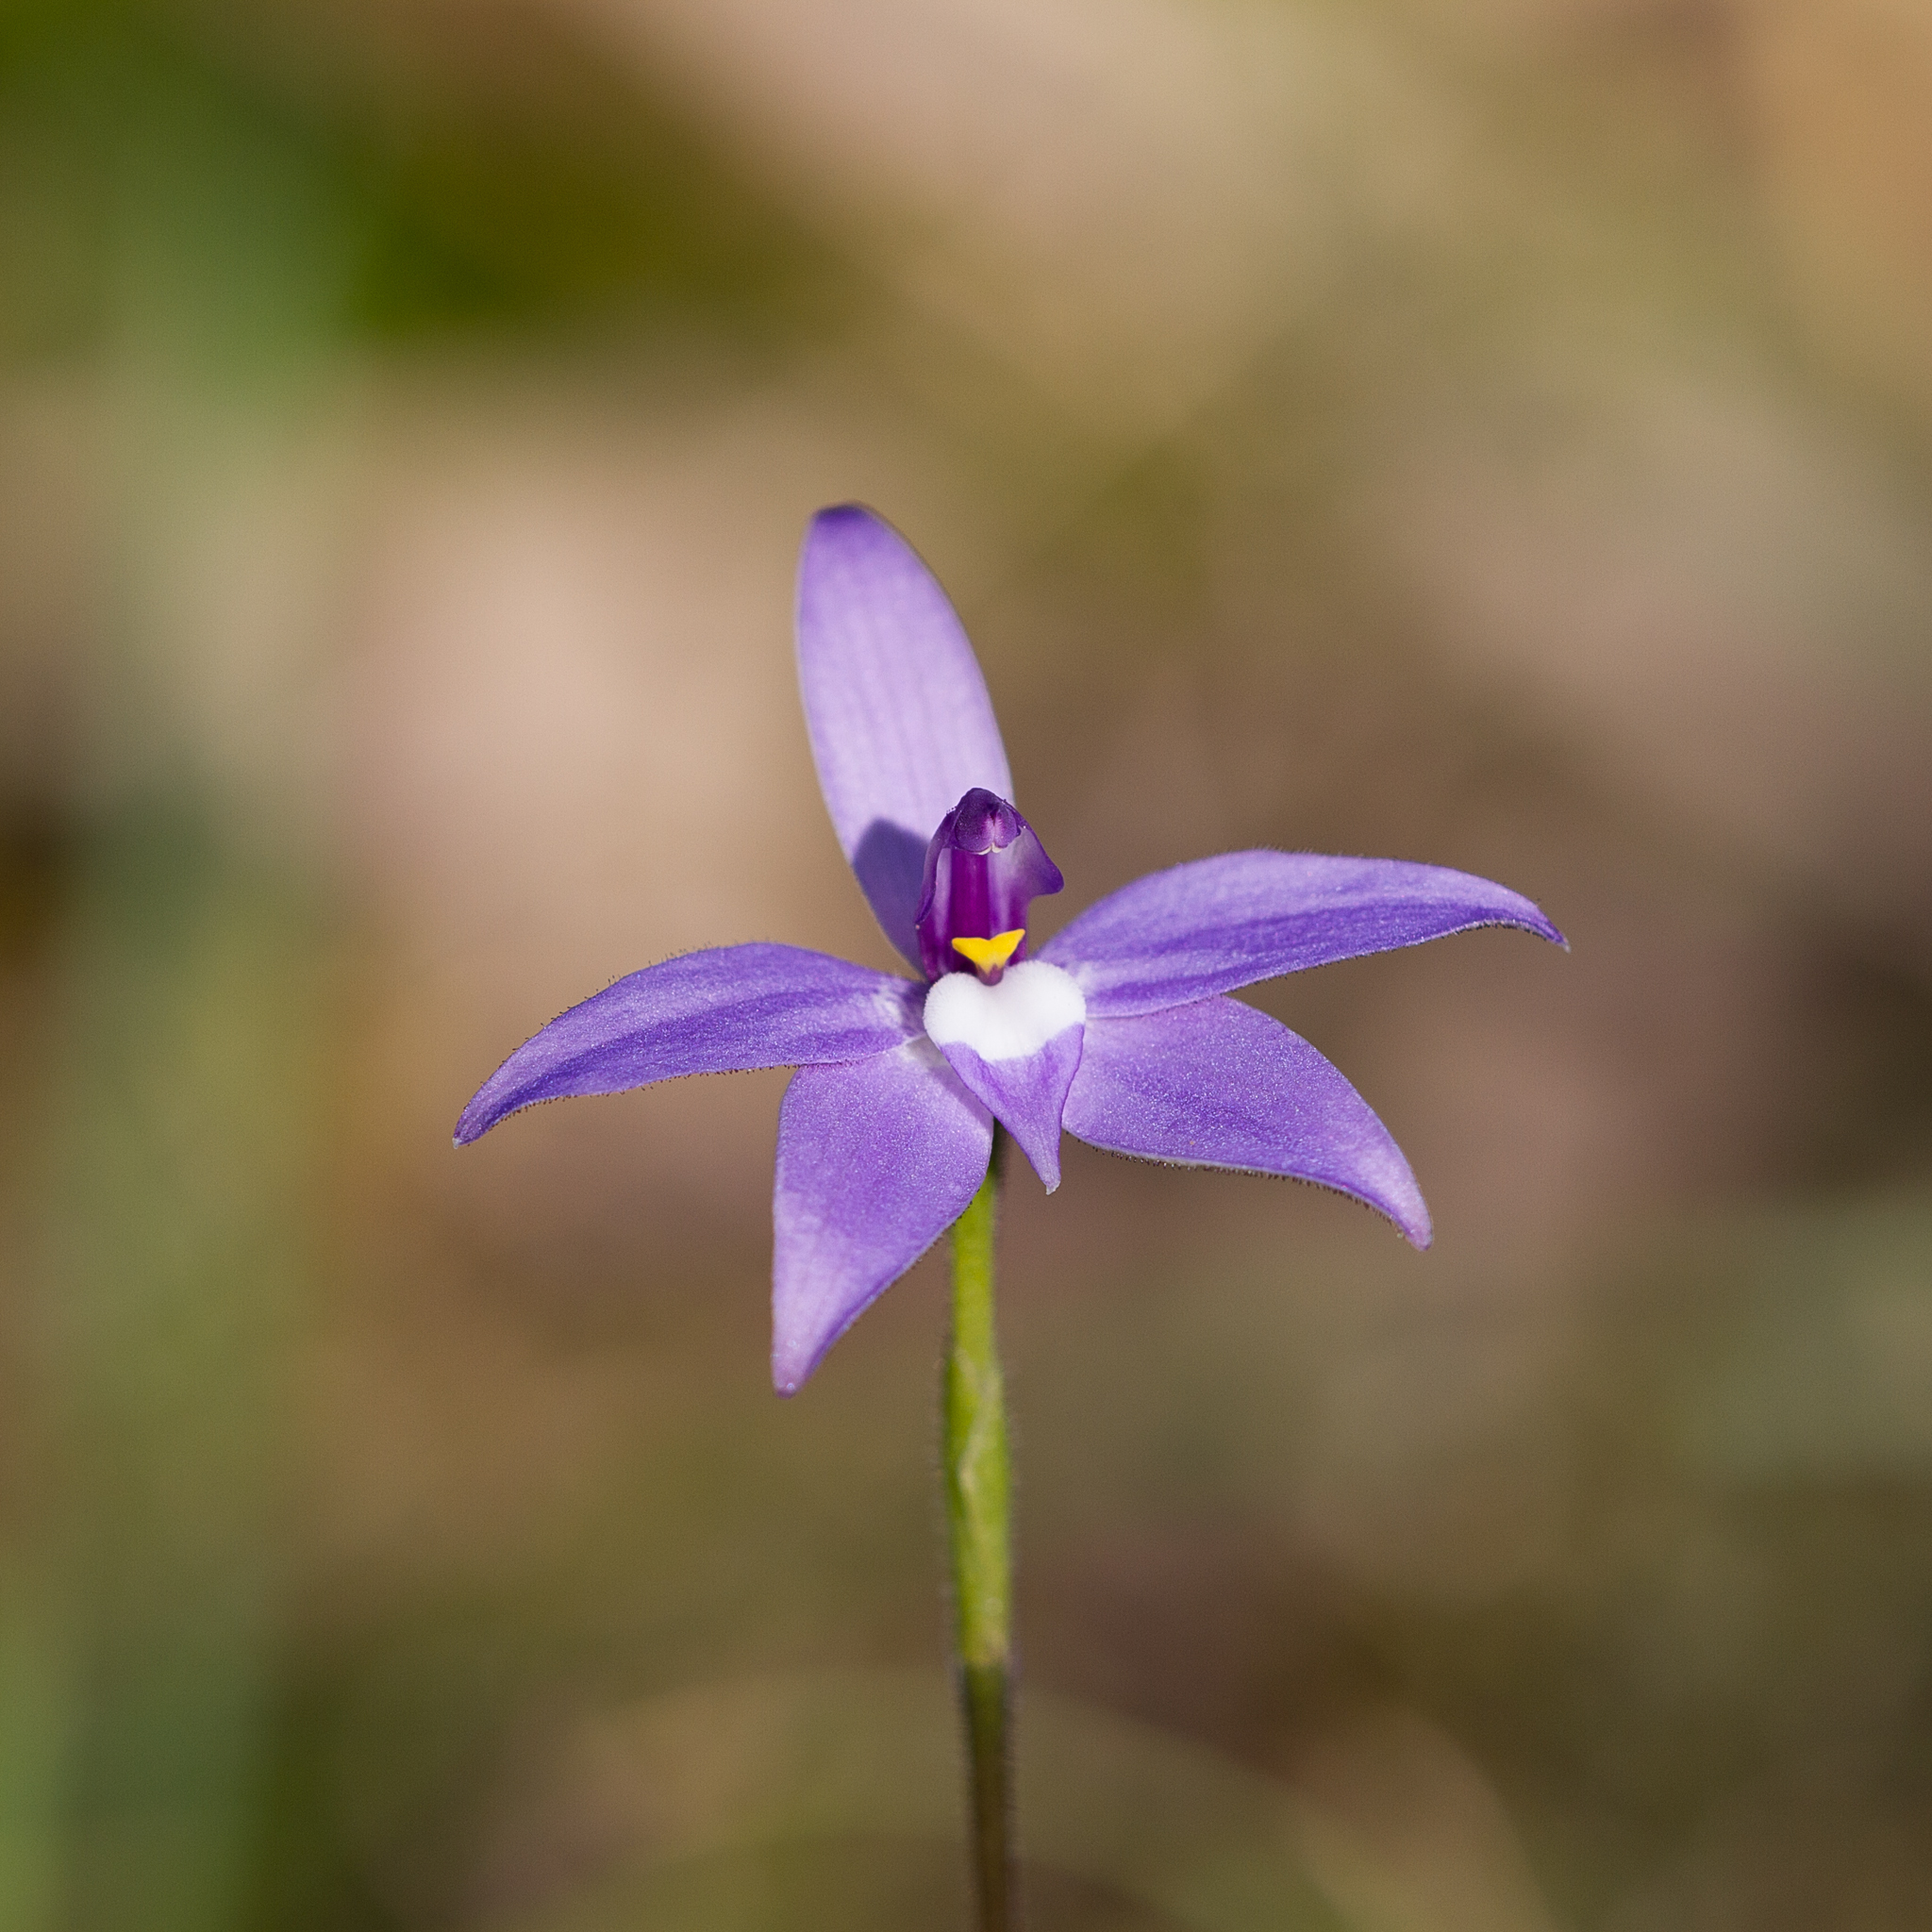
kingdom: Plantae
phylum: Tracheophyta
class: Liliopsida
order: Asparagales
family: Orchidaceae
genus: Caladenia
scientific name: Caladenia major
